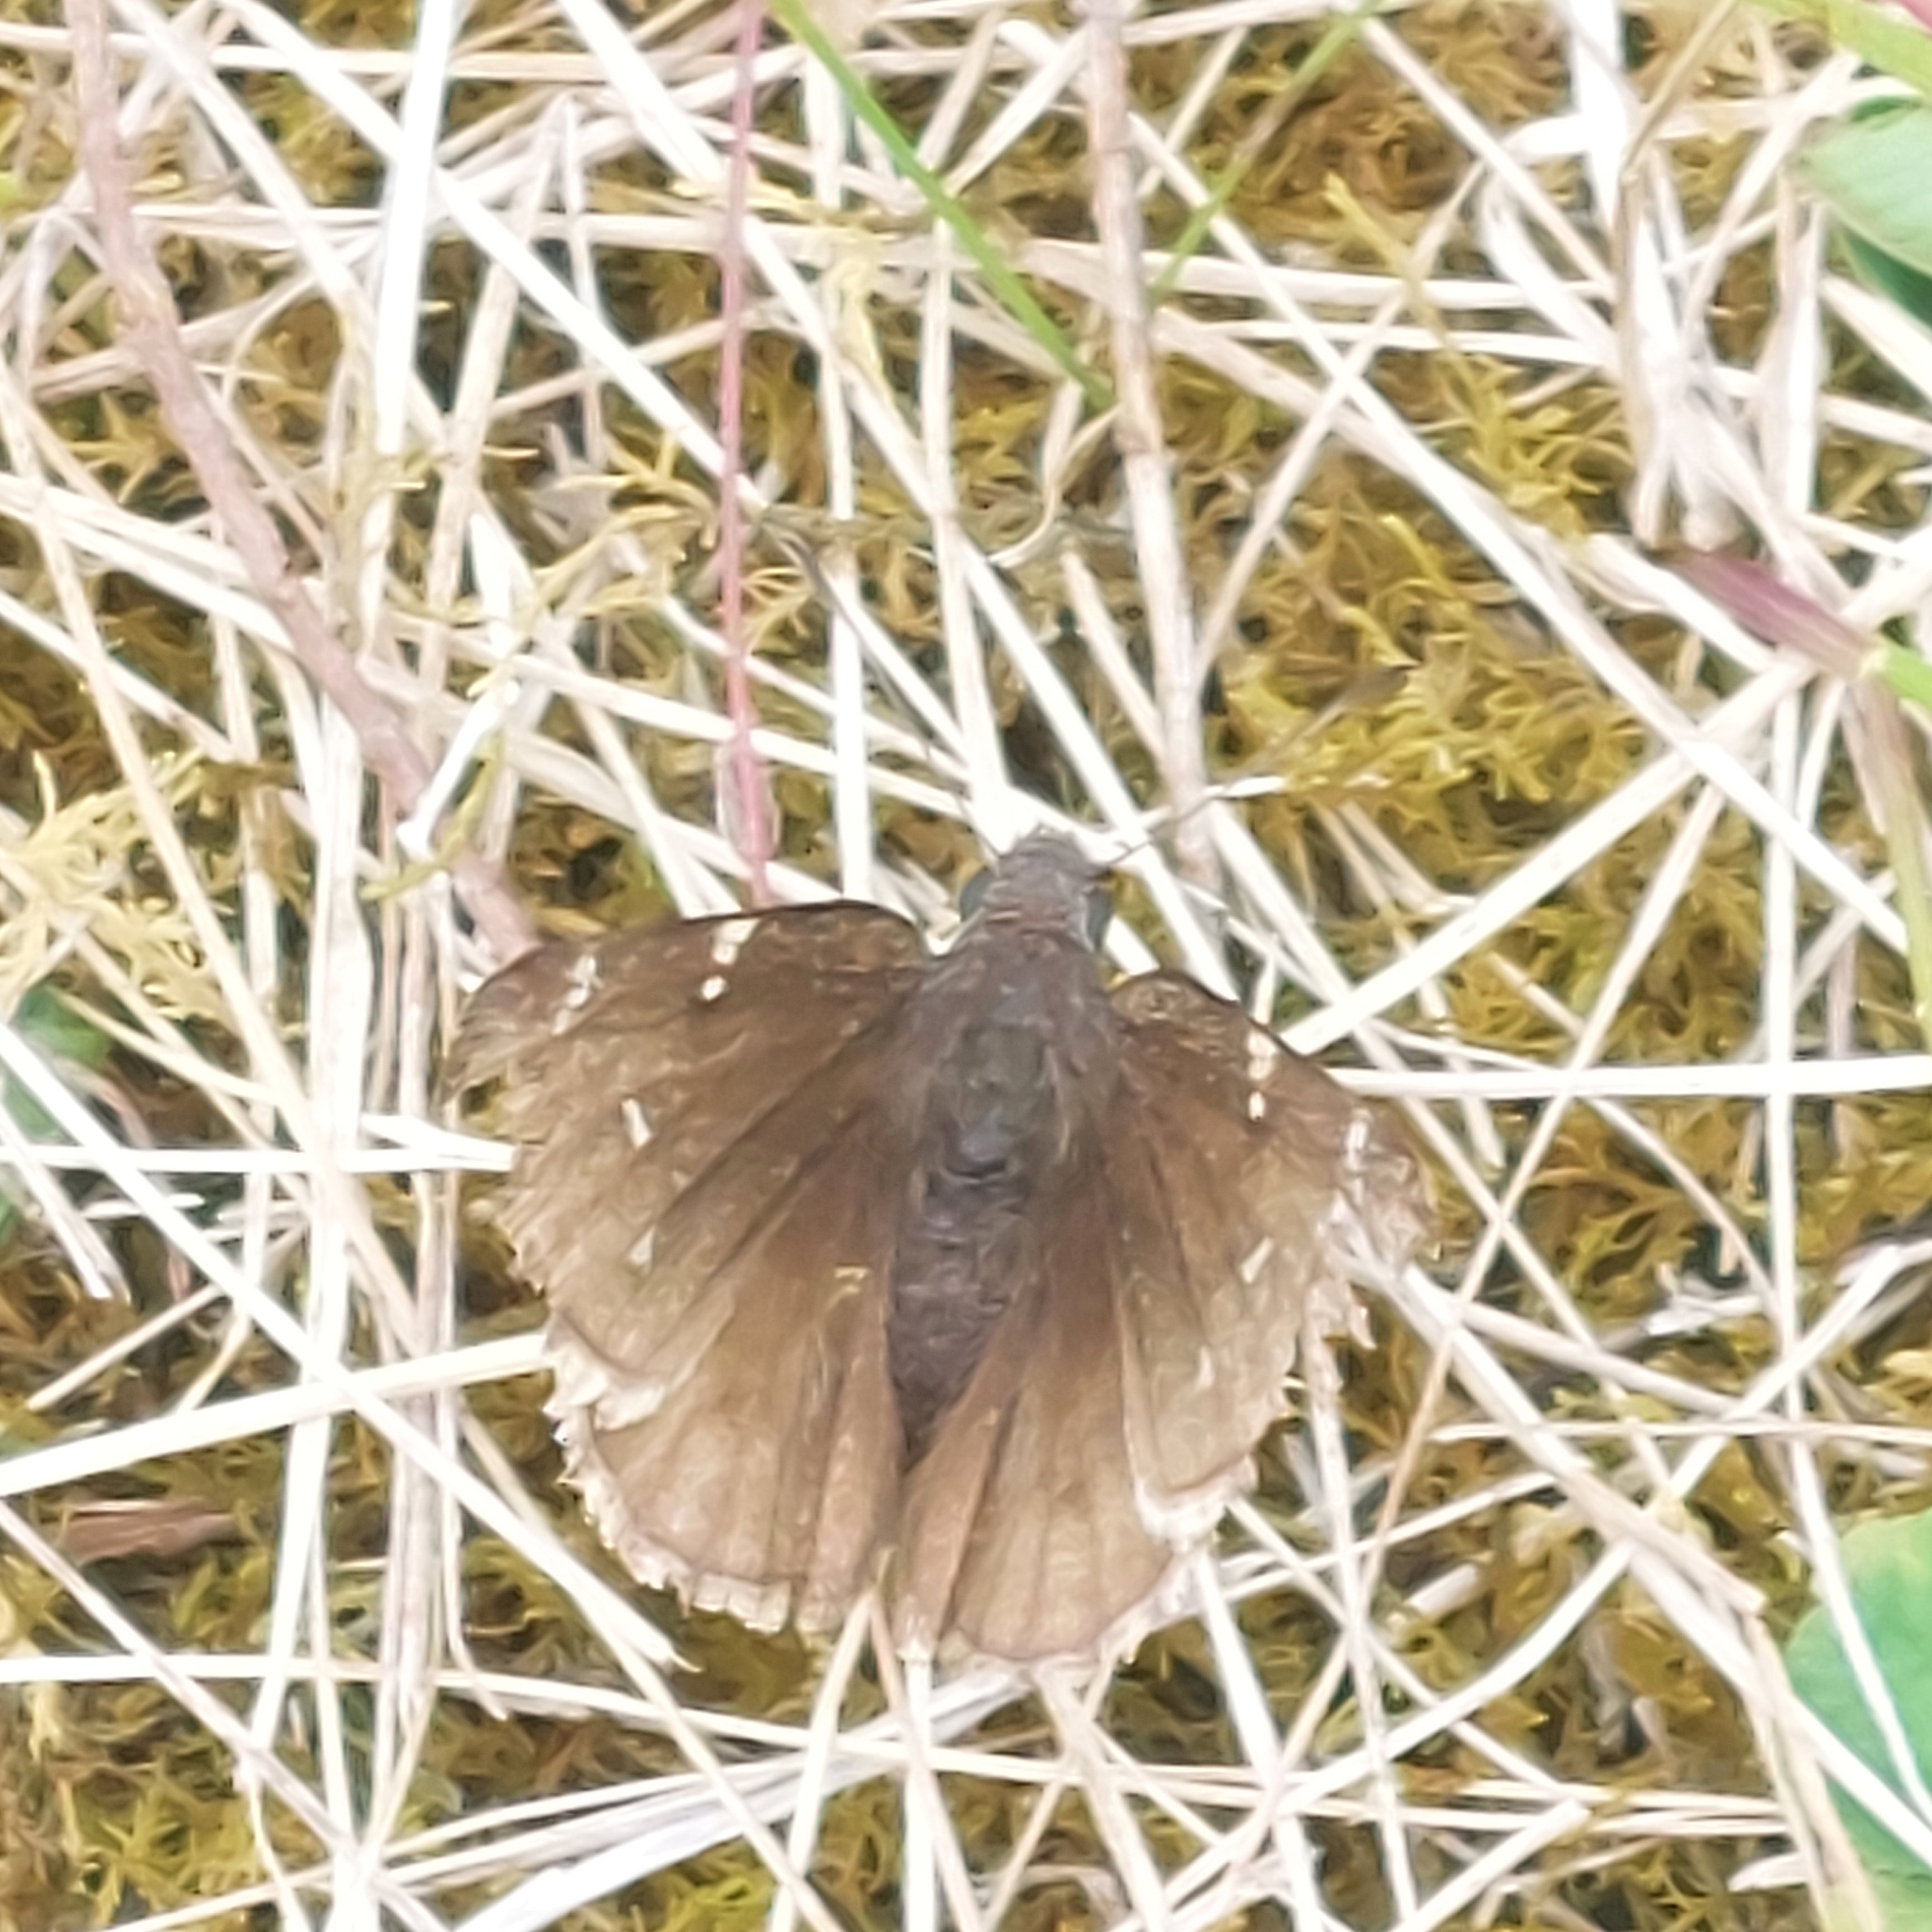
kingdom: Animalia
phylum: Arthropoda
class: Insecta
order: Lepidoptera
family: Hesperiidae
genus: Thorybes
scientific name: Thorybes pylades
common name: Northern cloudywing
